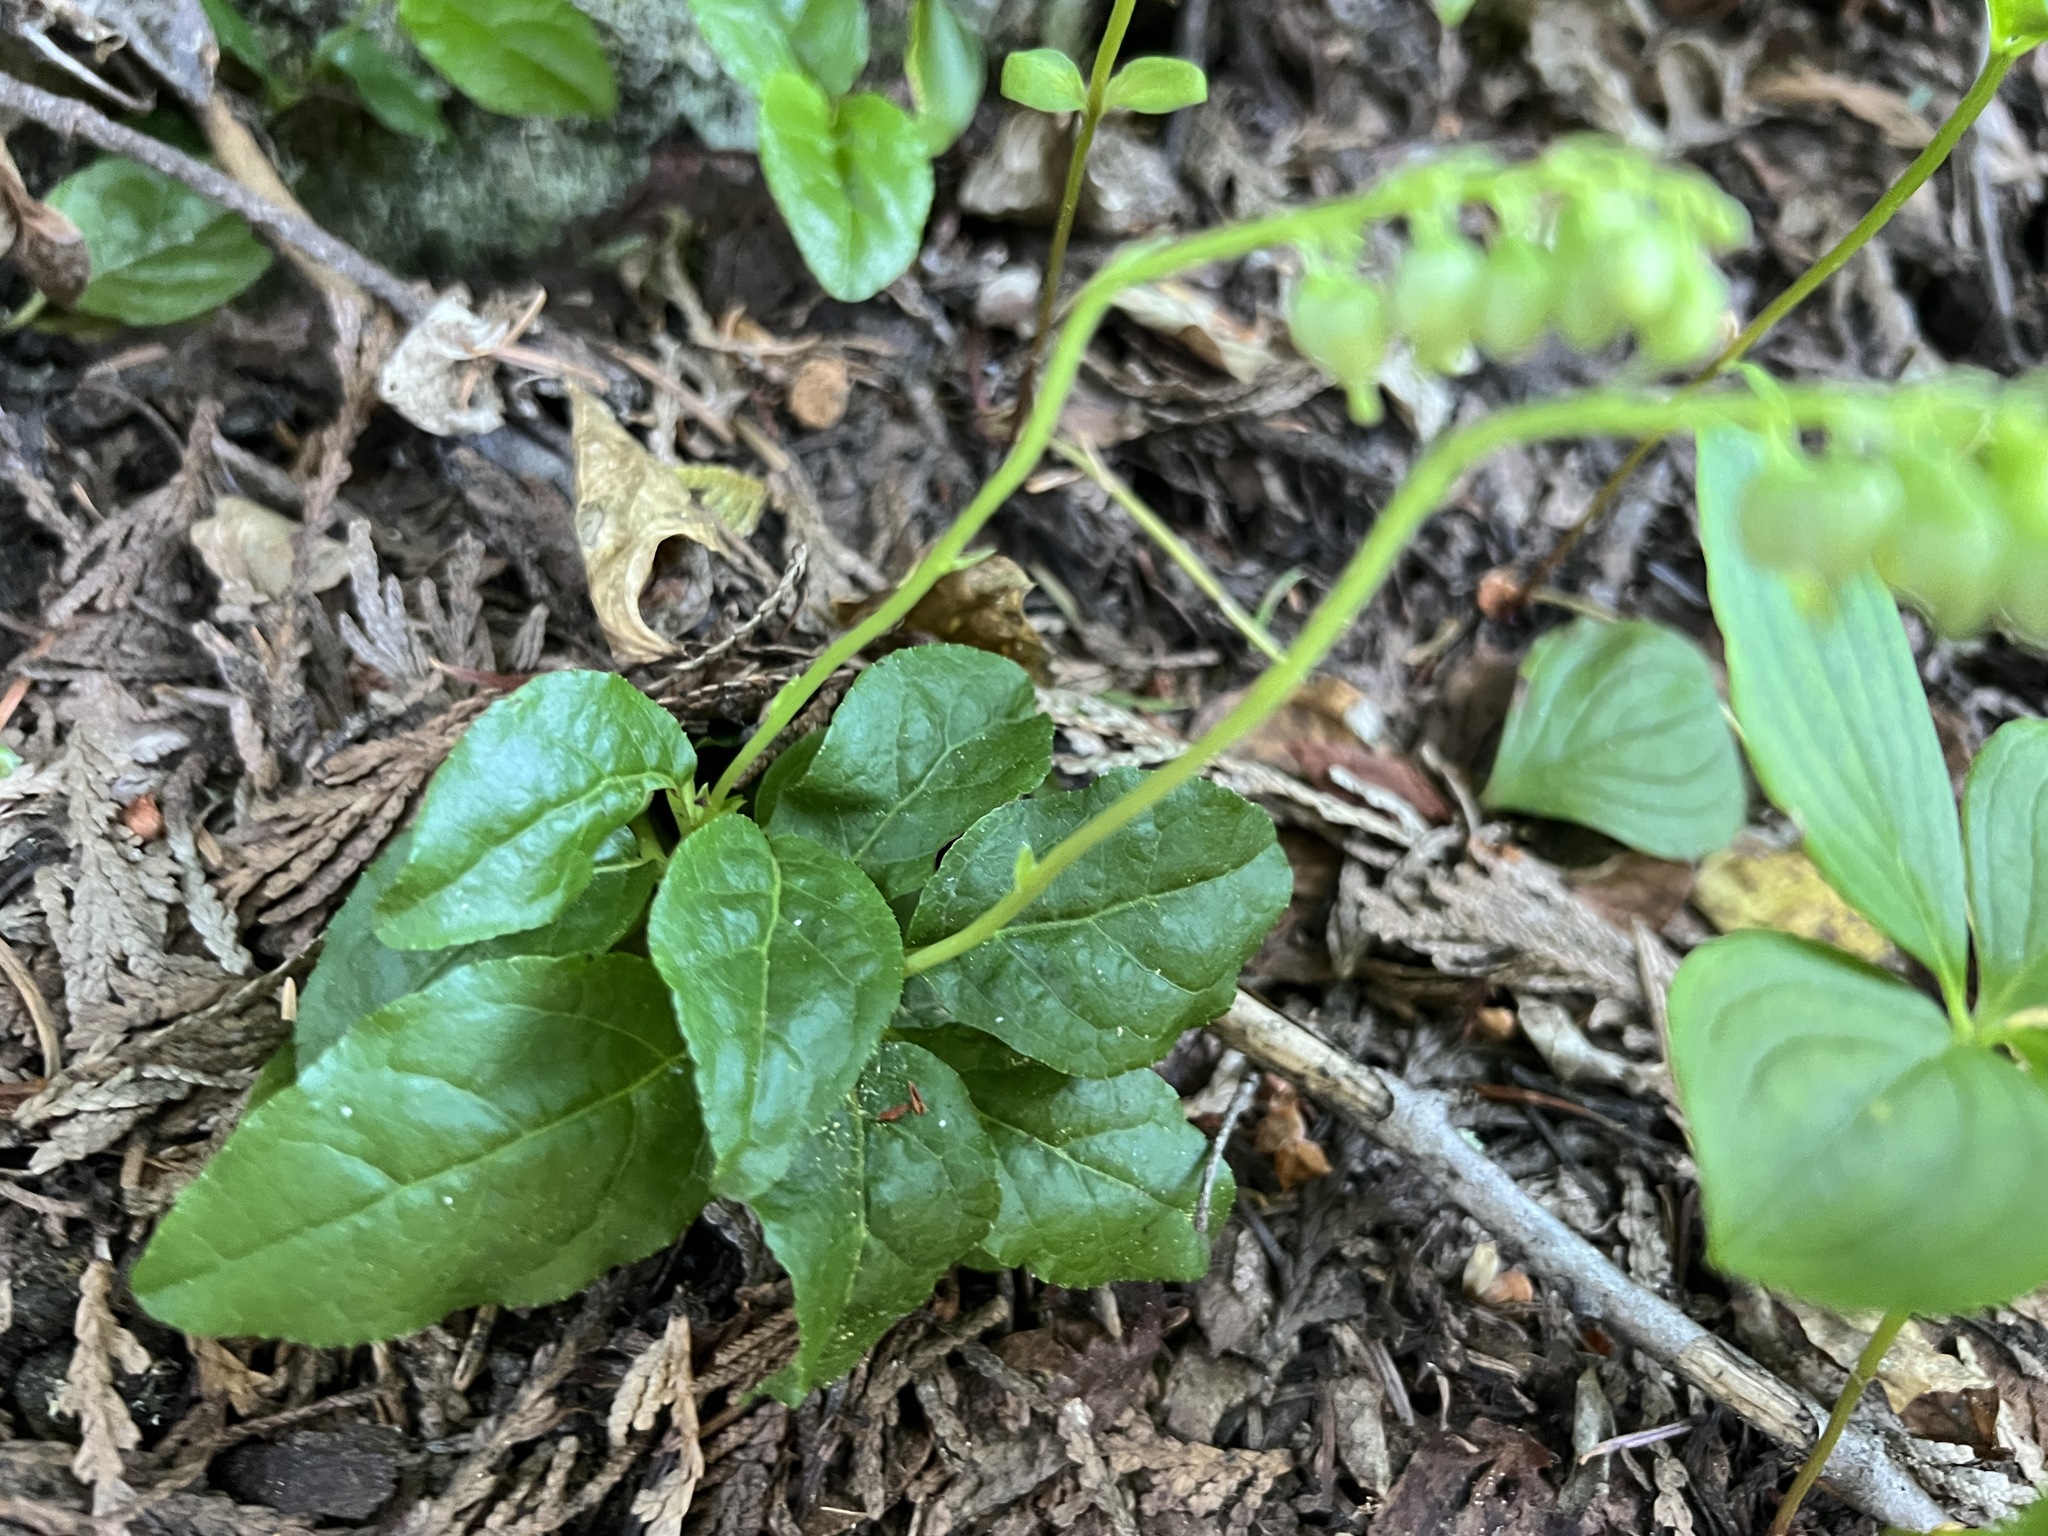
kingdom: Plantae
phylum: Tracheophyta
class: Magnoliopsida
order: Ericales
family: Ericaceae
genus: Orthilia
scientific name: Orthilia secunda
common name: One-sided orthilia
